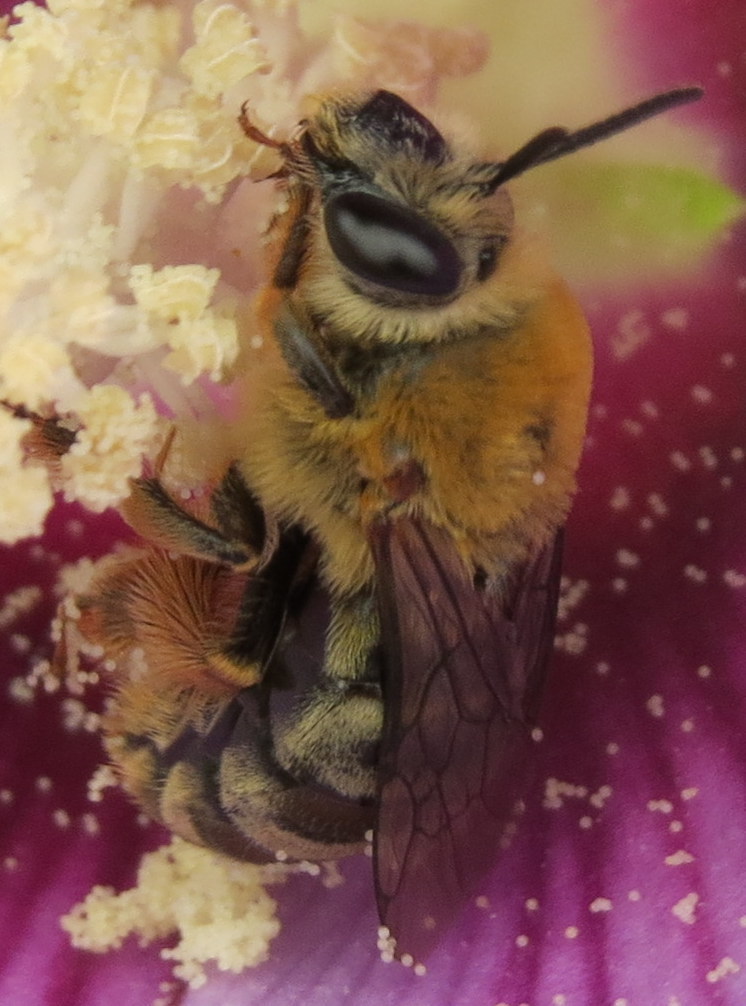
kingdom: Animalia
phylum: Arthropoda
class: Insecta
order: Hymenoptera
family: Apidae
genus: Peponapis
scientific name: Peponapis pruinosa
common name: Pruinose squash bee
